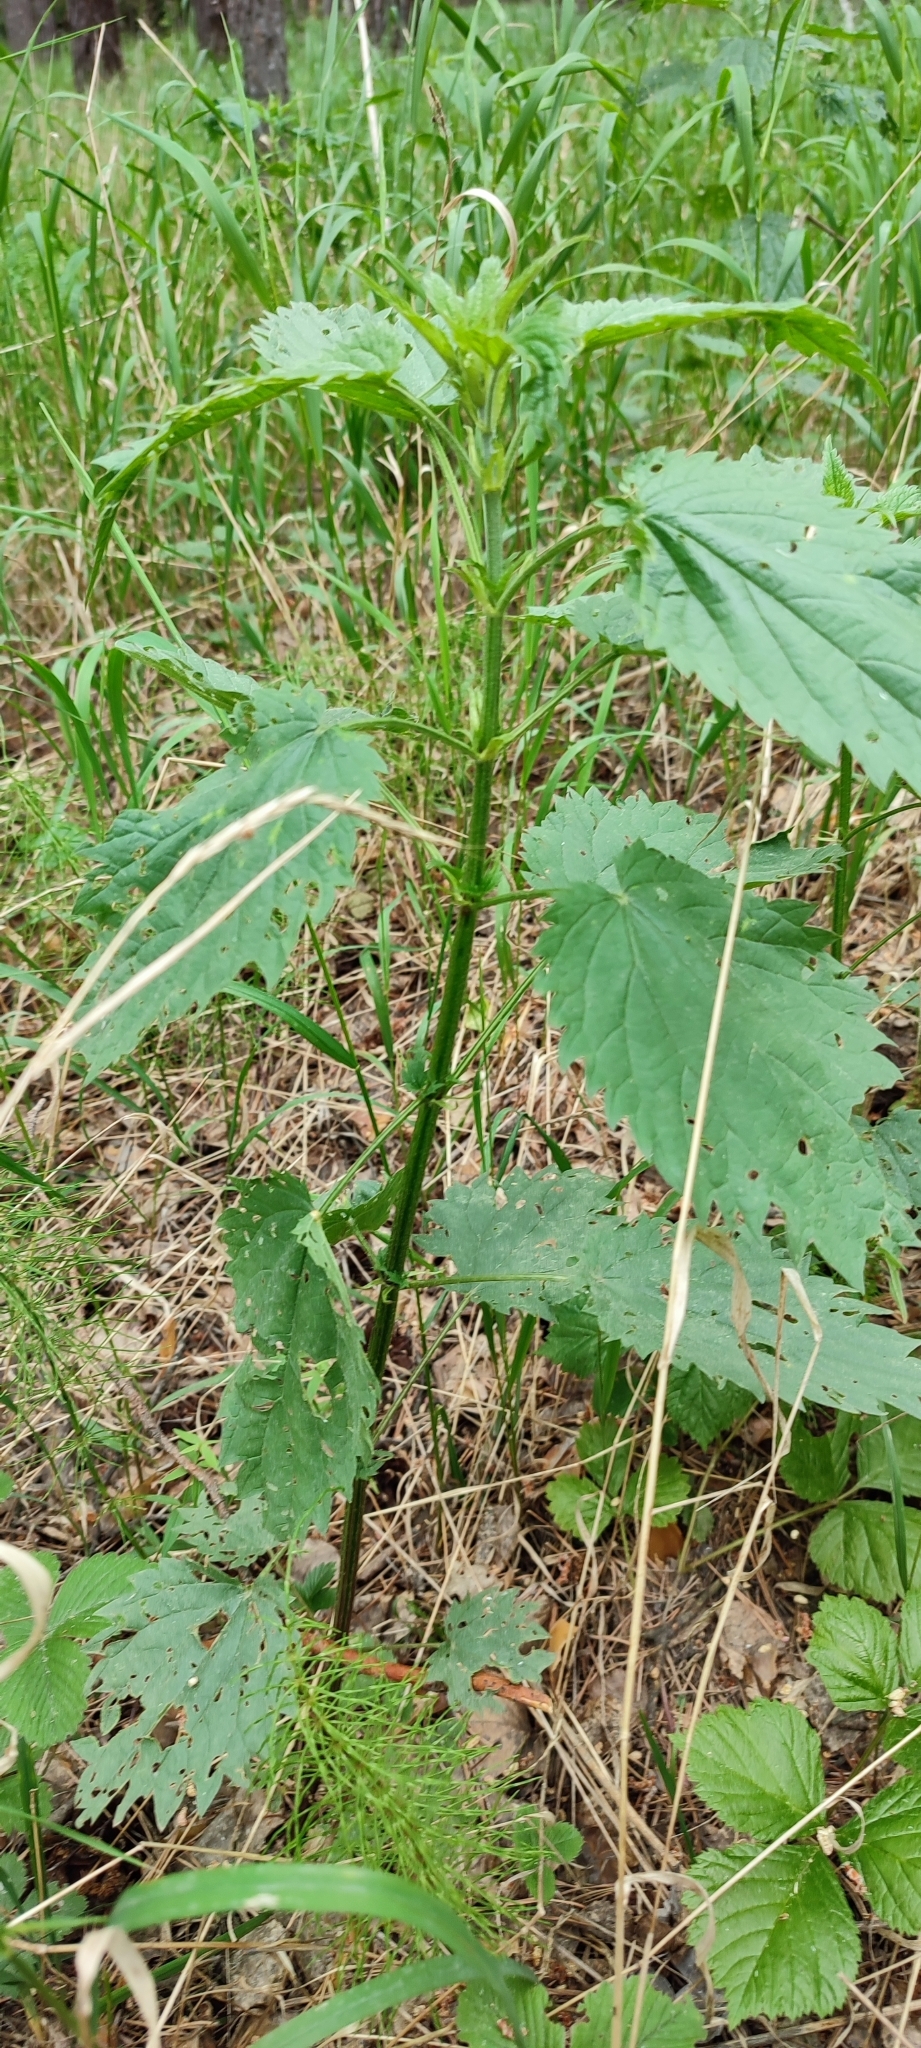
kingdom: Plantae
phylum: Tracheophyta
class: Magnoliopsida
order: Rosales
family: Urticaceae
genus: Urtica
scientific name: Urtica galeopsifolia
